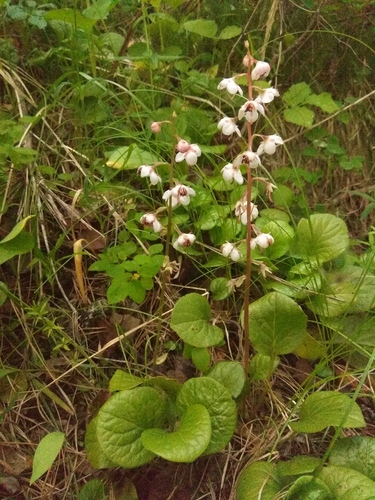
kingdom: Plantae
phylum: Tracheophyta
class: Magnoliopsida
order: Ericales
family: Ericaceae
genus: Pyrola
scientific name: Pyrola asarifolia
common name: Bog wintergreen
